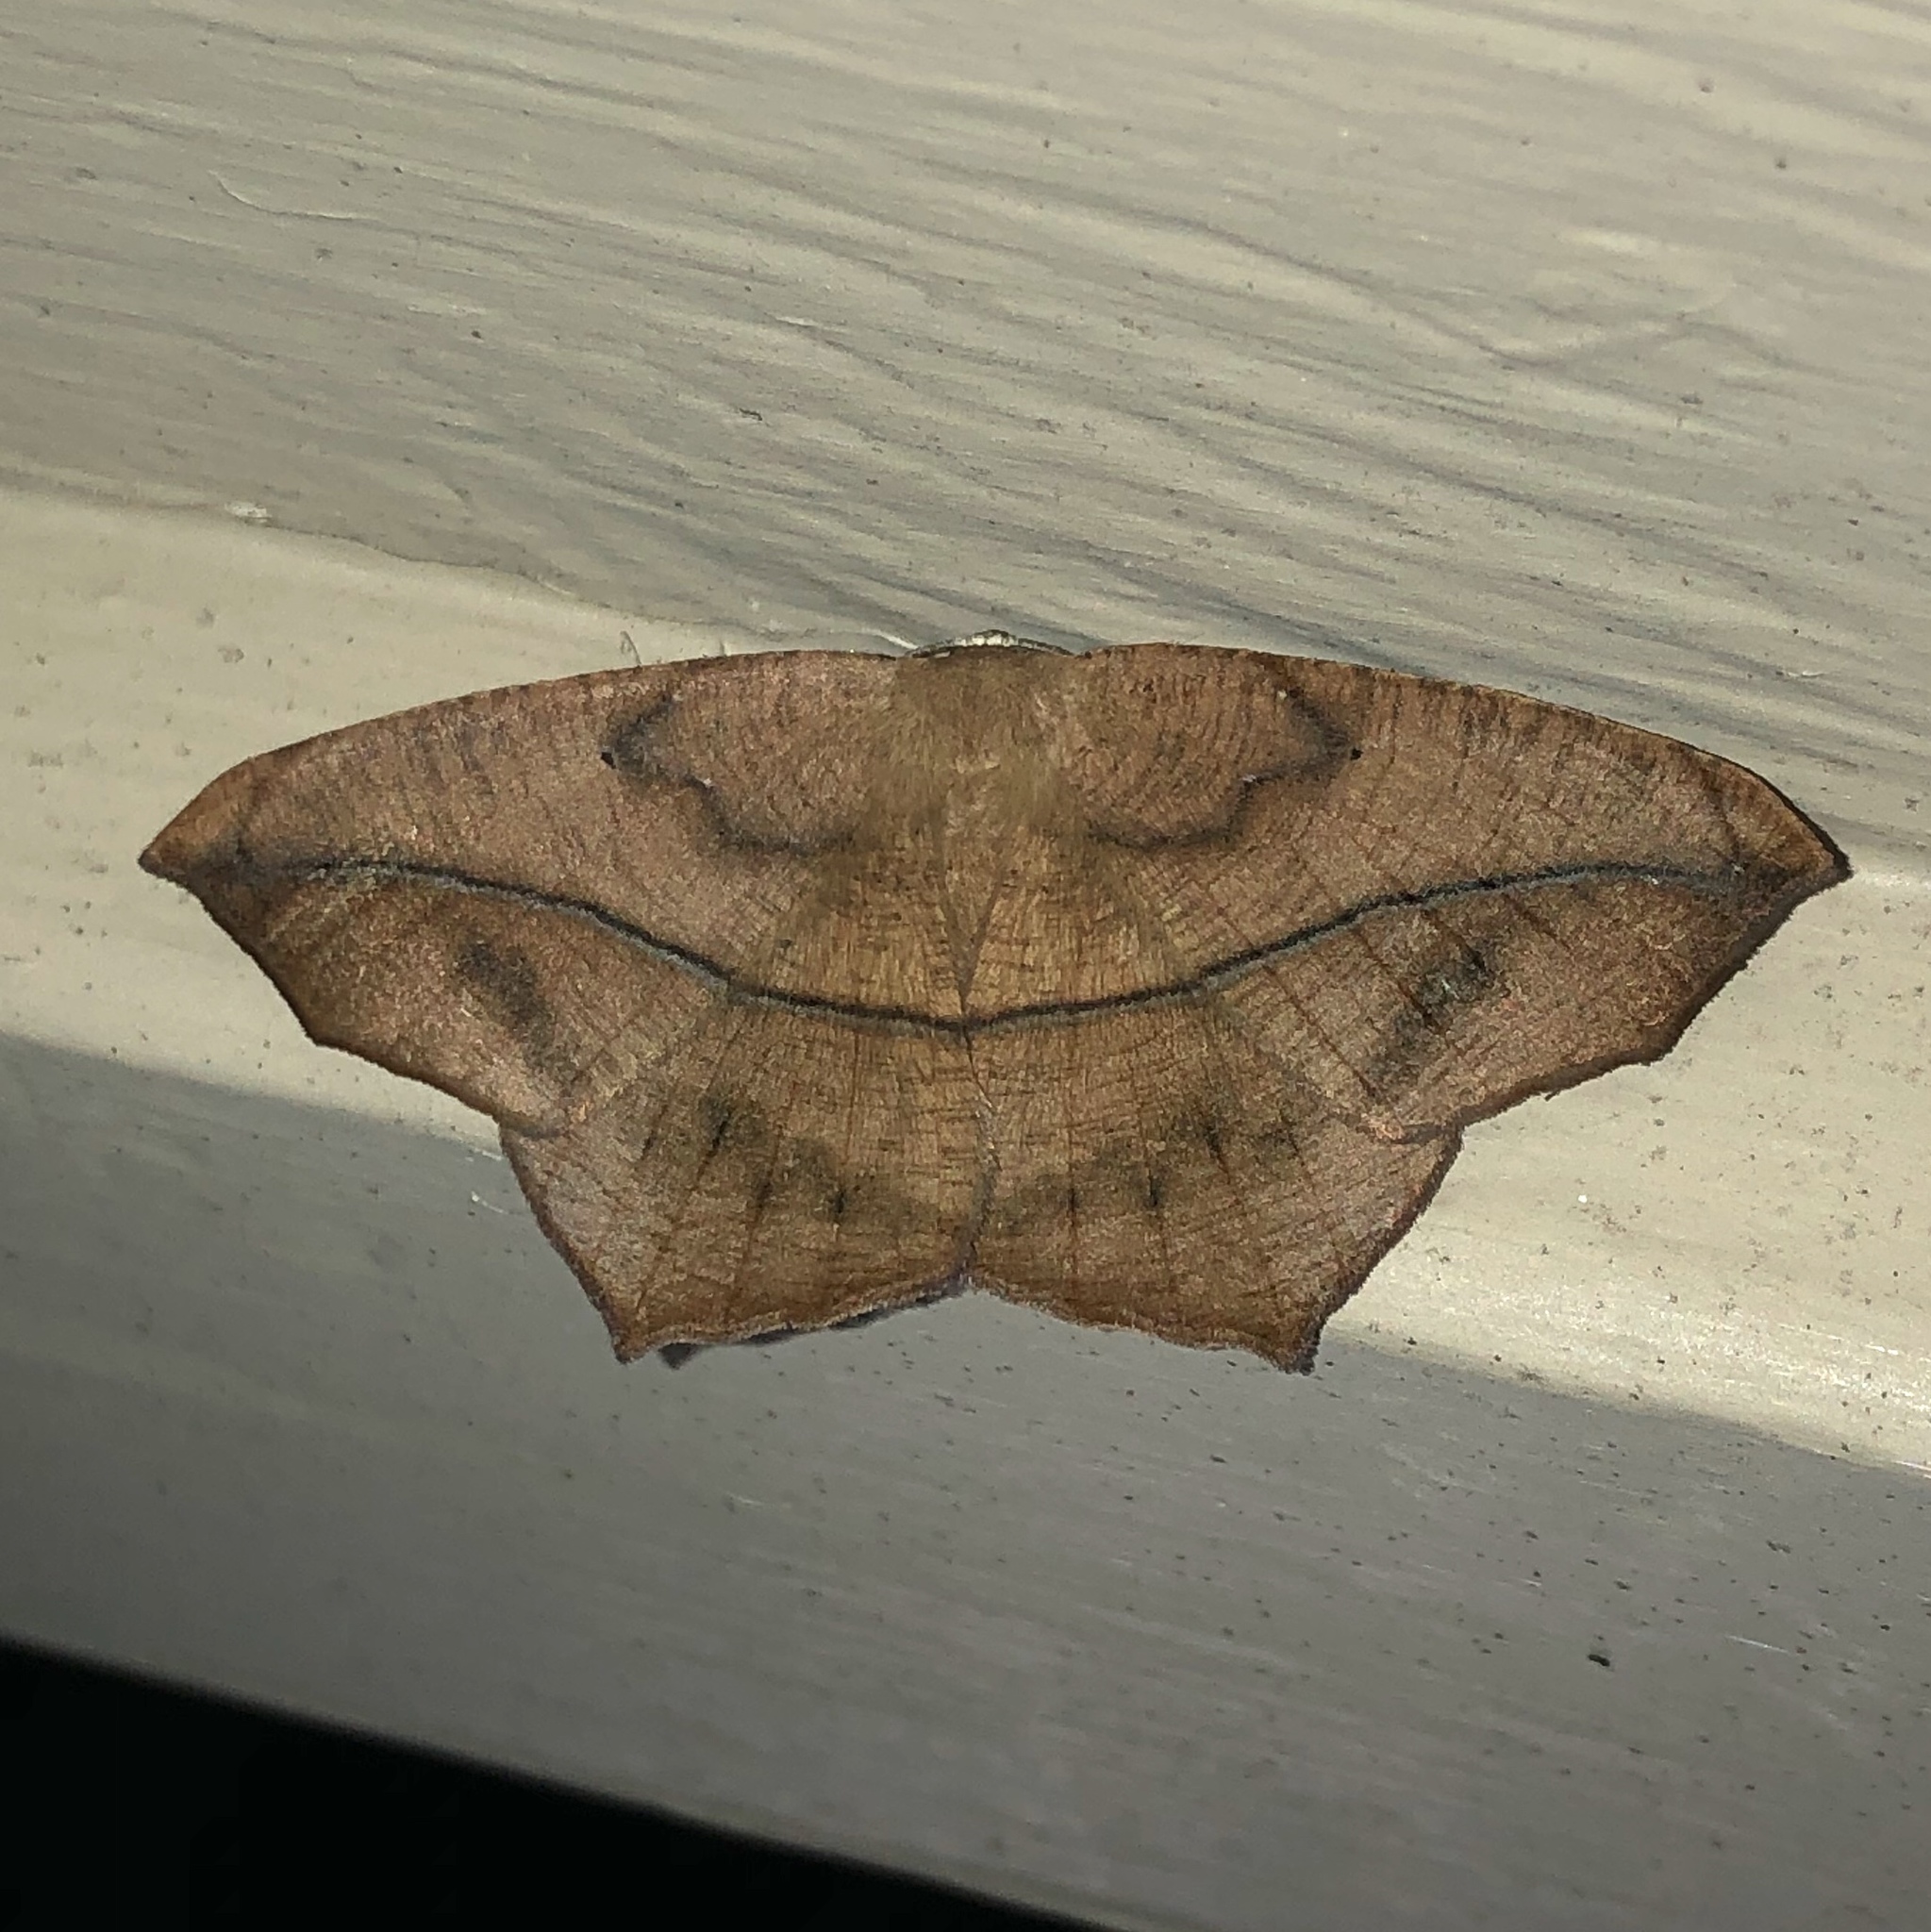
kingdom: Animalia
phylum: Arthropoda
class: Insecta
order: Lepidoptera
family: Geometridae
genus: Prochoerodes
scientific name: Prochoerodes lineola
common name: Large maple spanworm
